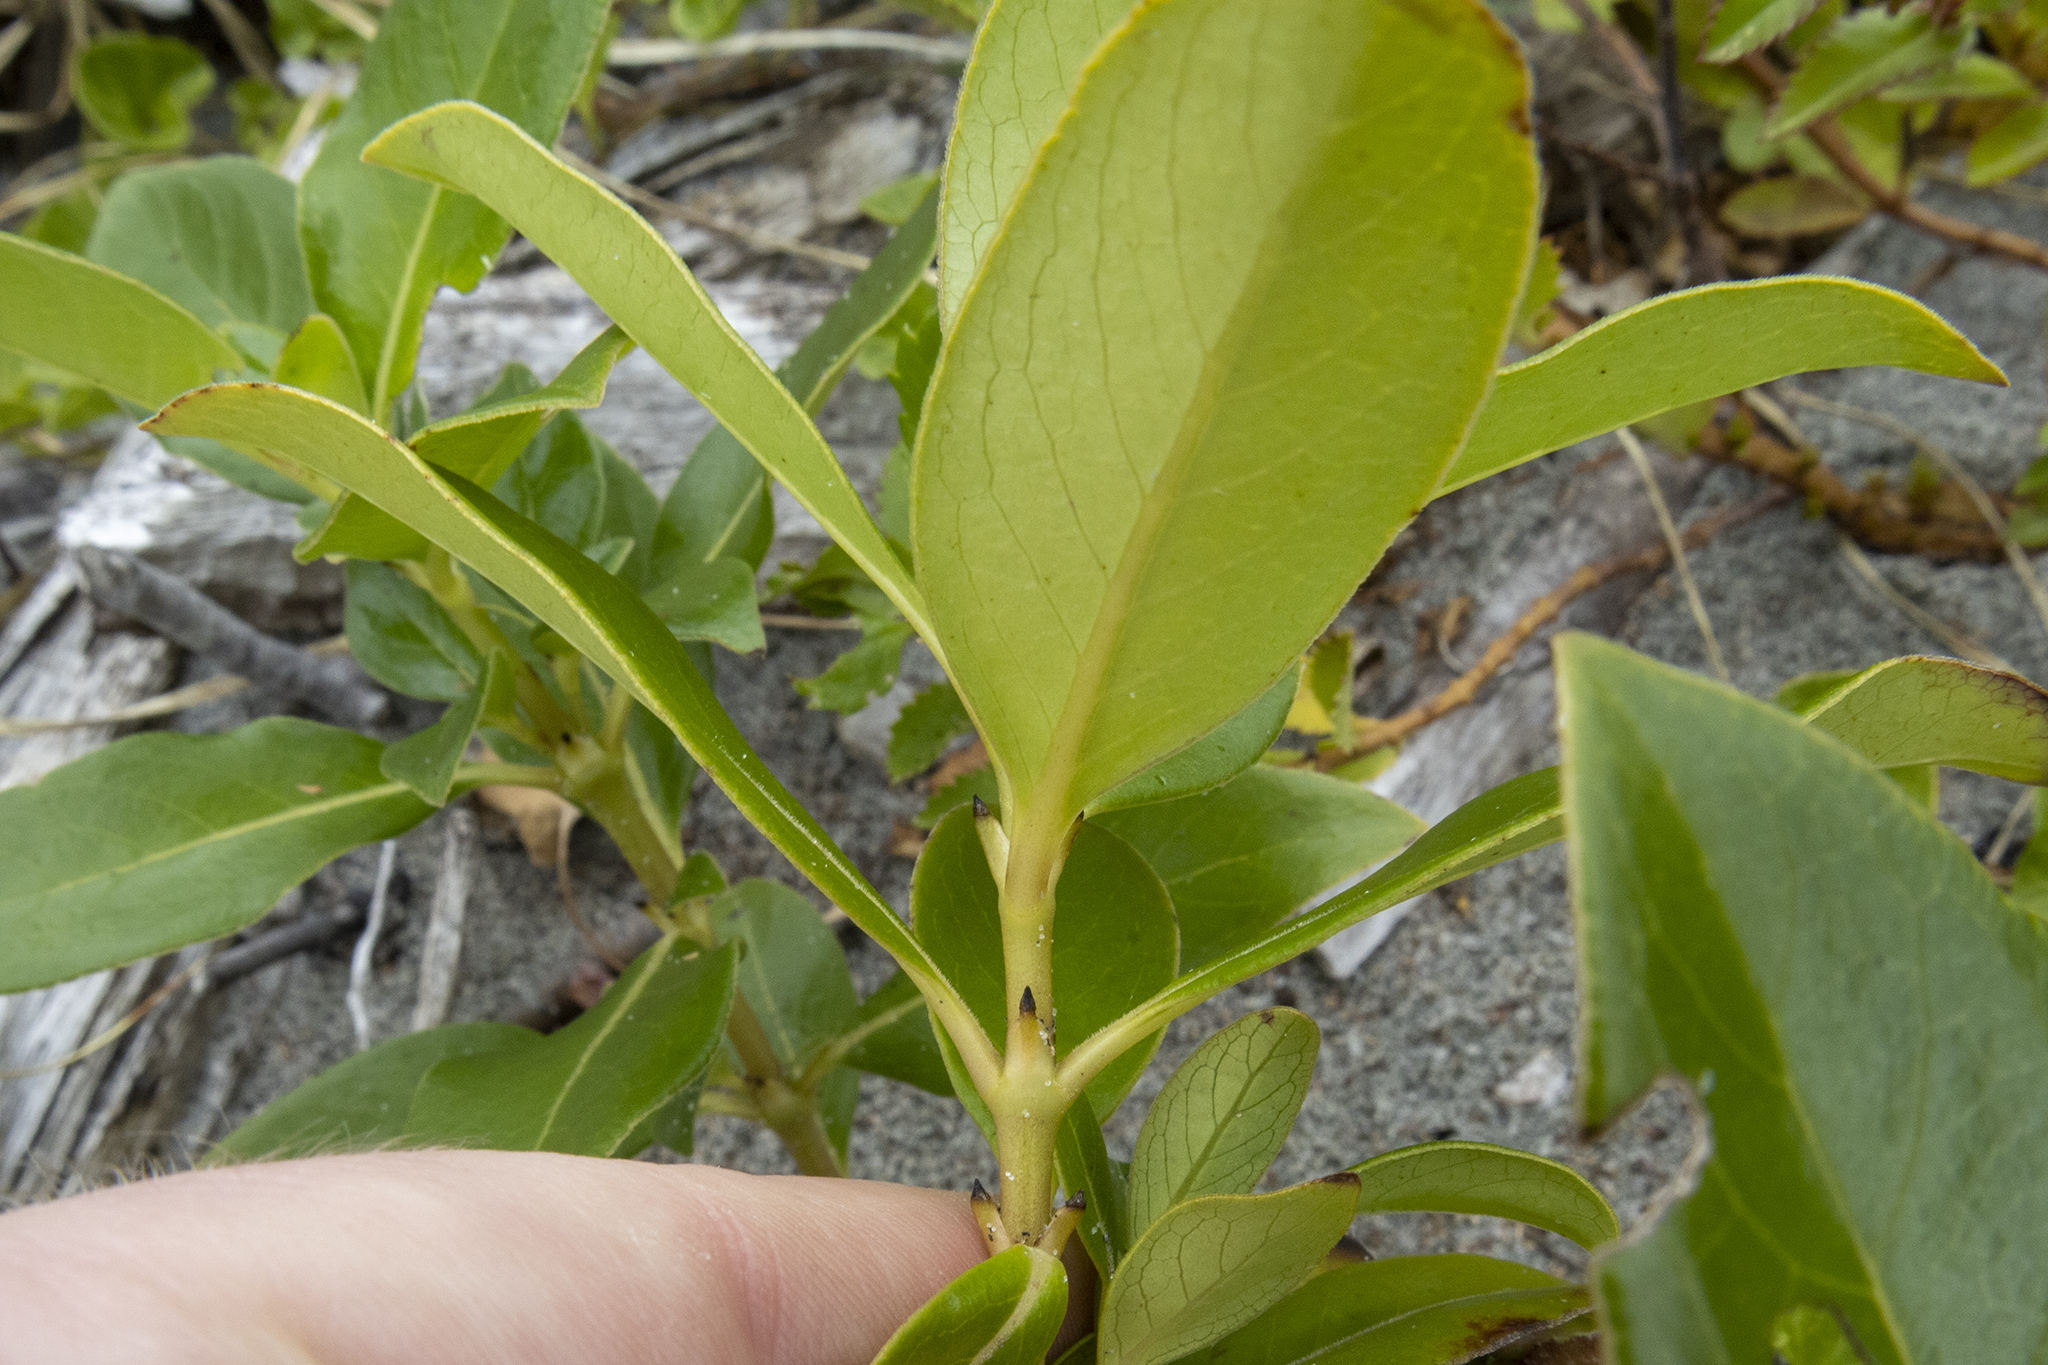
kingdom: Plantae
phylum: Tracheophyta
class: Magnoliopsida
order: Gentianales
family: Rubiaceae
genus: Coprosma
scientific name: Coprosma robusta
